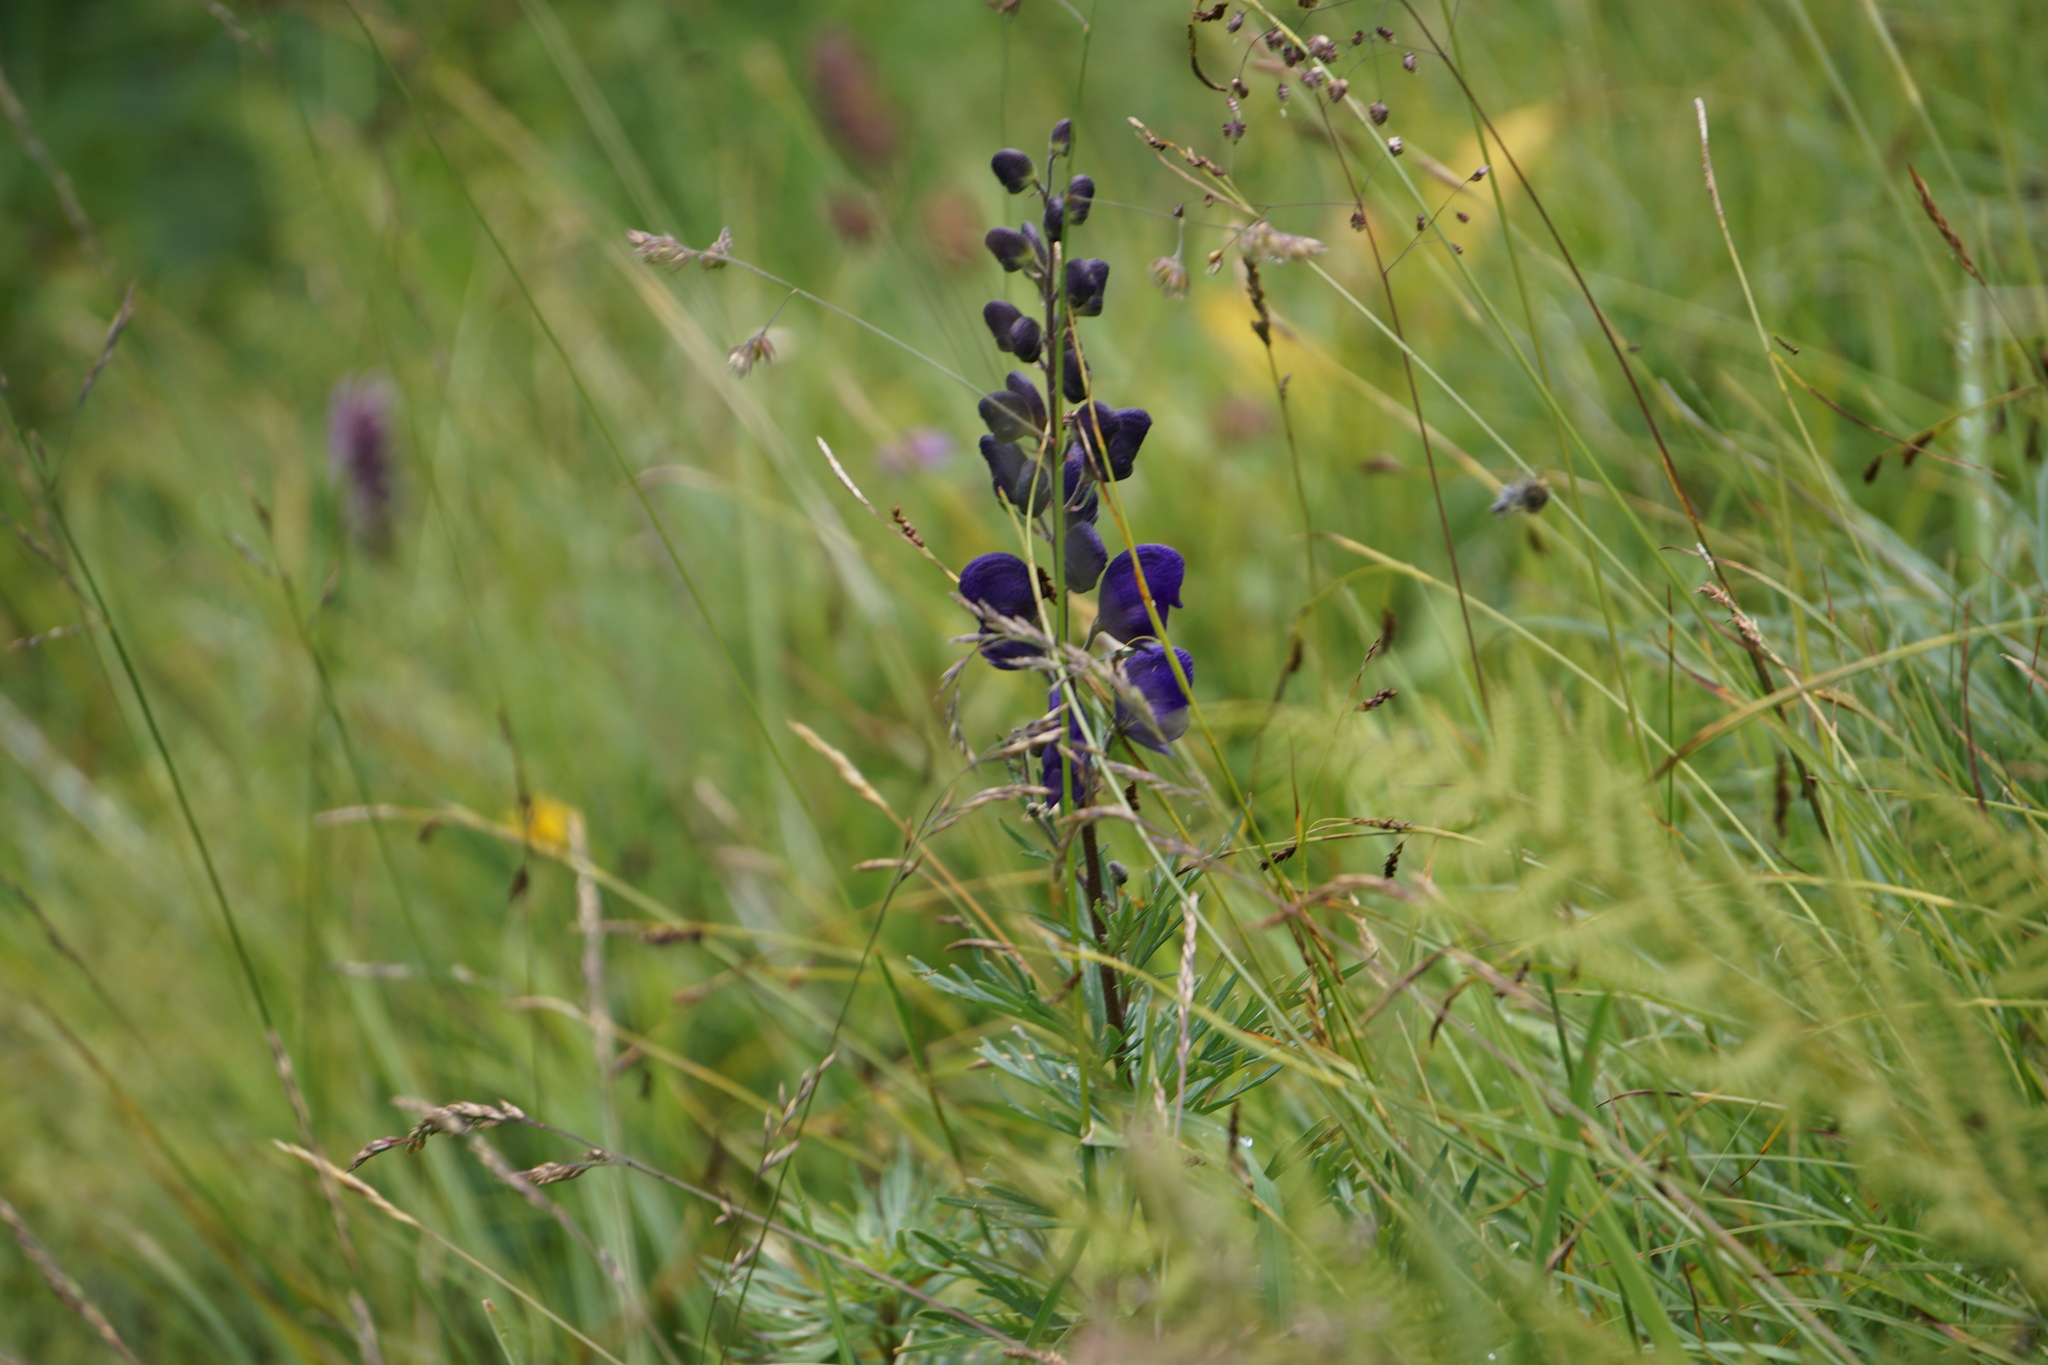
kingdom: Plantae
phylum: Tracheophyta
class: Magnoliopsida
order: Ranunculales
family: Ranunculaceae
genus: Aconitum
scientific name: Aconitum napellus
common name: Garden monkshood
